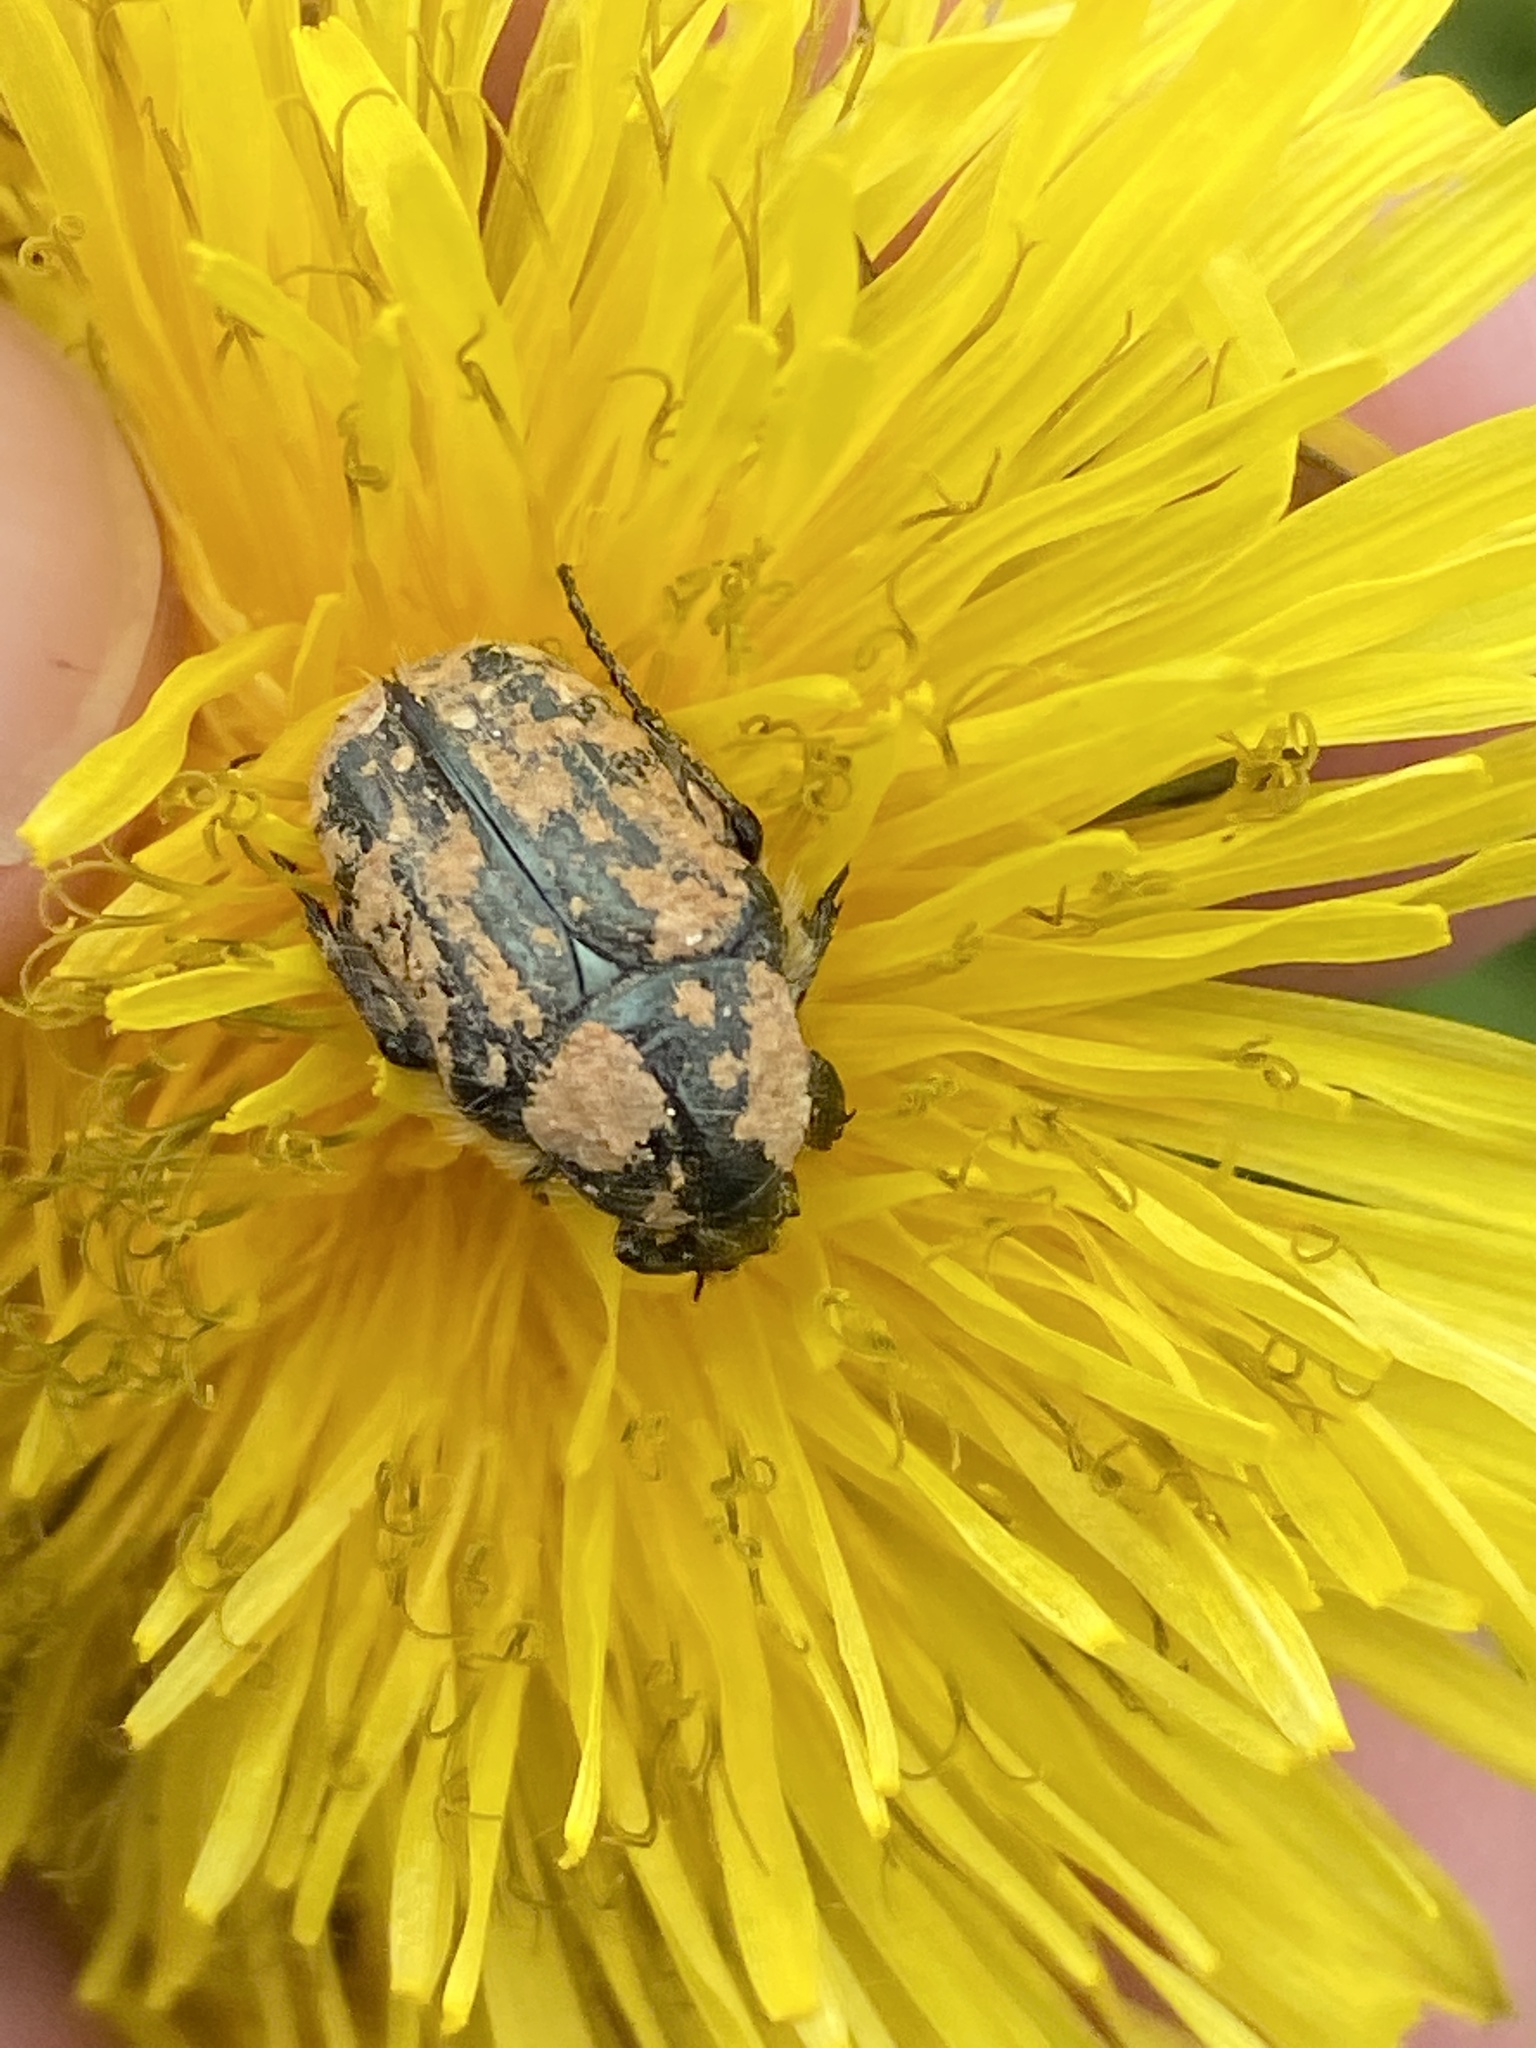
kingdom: Animalia
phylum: Arthropoda
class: Insecta
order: Coleoptera
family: Scarabaeidae
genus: Oxythyrea
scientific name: Oxythyrea funesta
